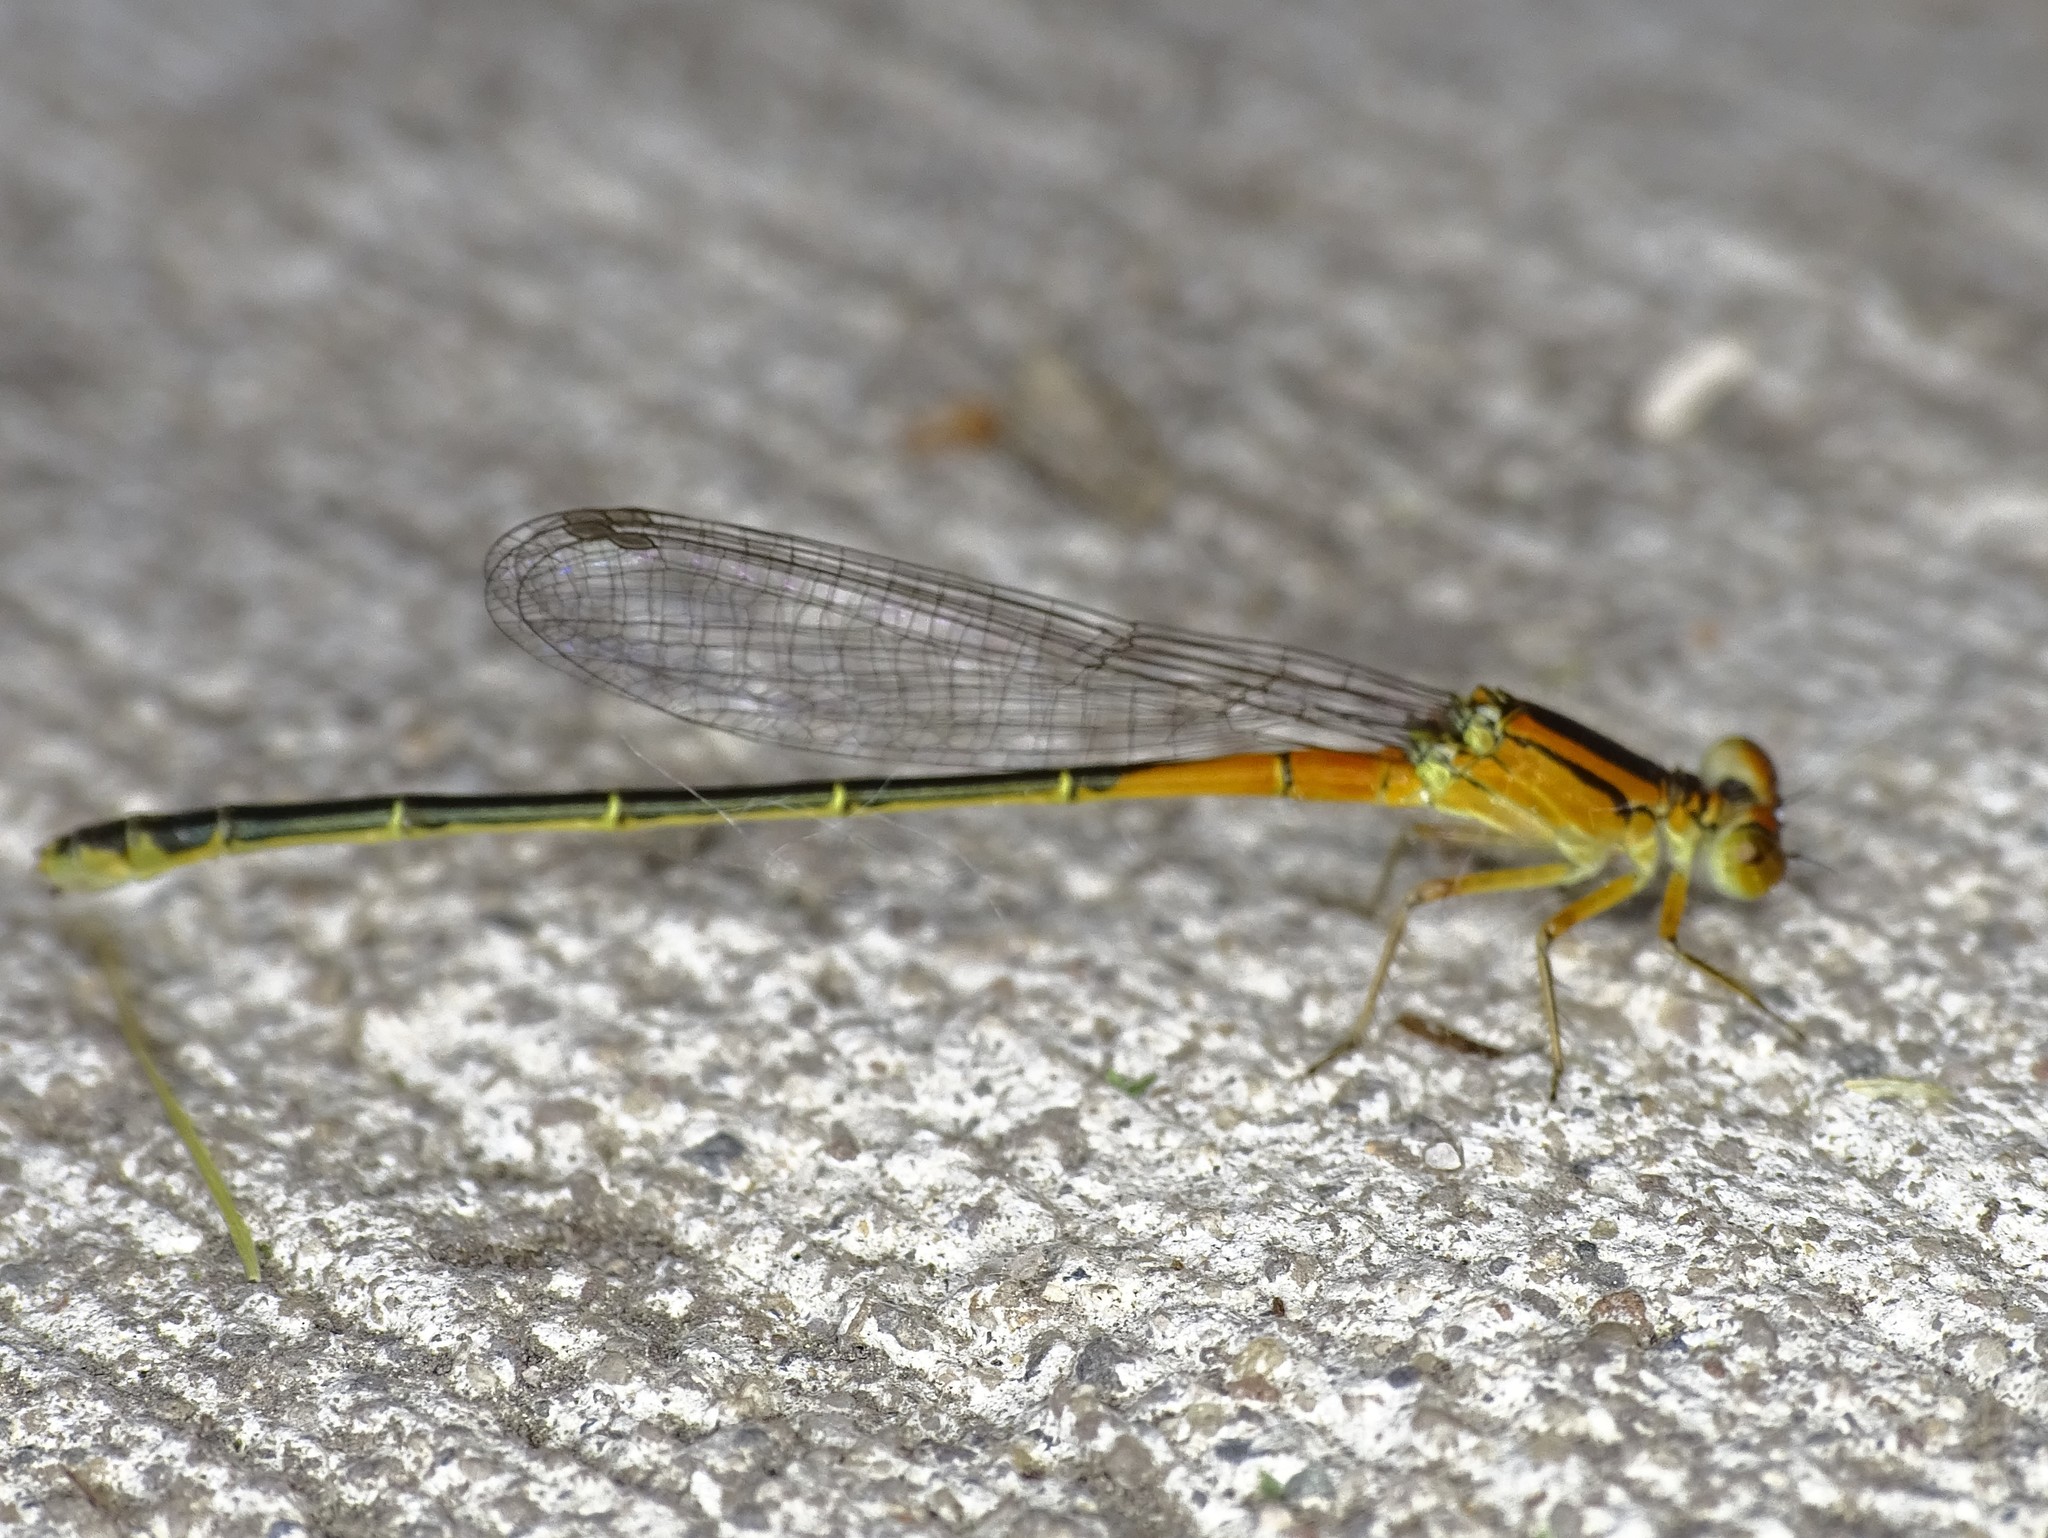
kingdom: Animalia
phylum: Arthropoda
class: Insecta
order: Odonata
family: Coenagrionidae
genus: Ischnura
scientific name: Ischnura verticalis
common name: Eastern forktail
